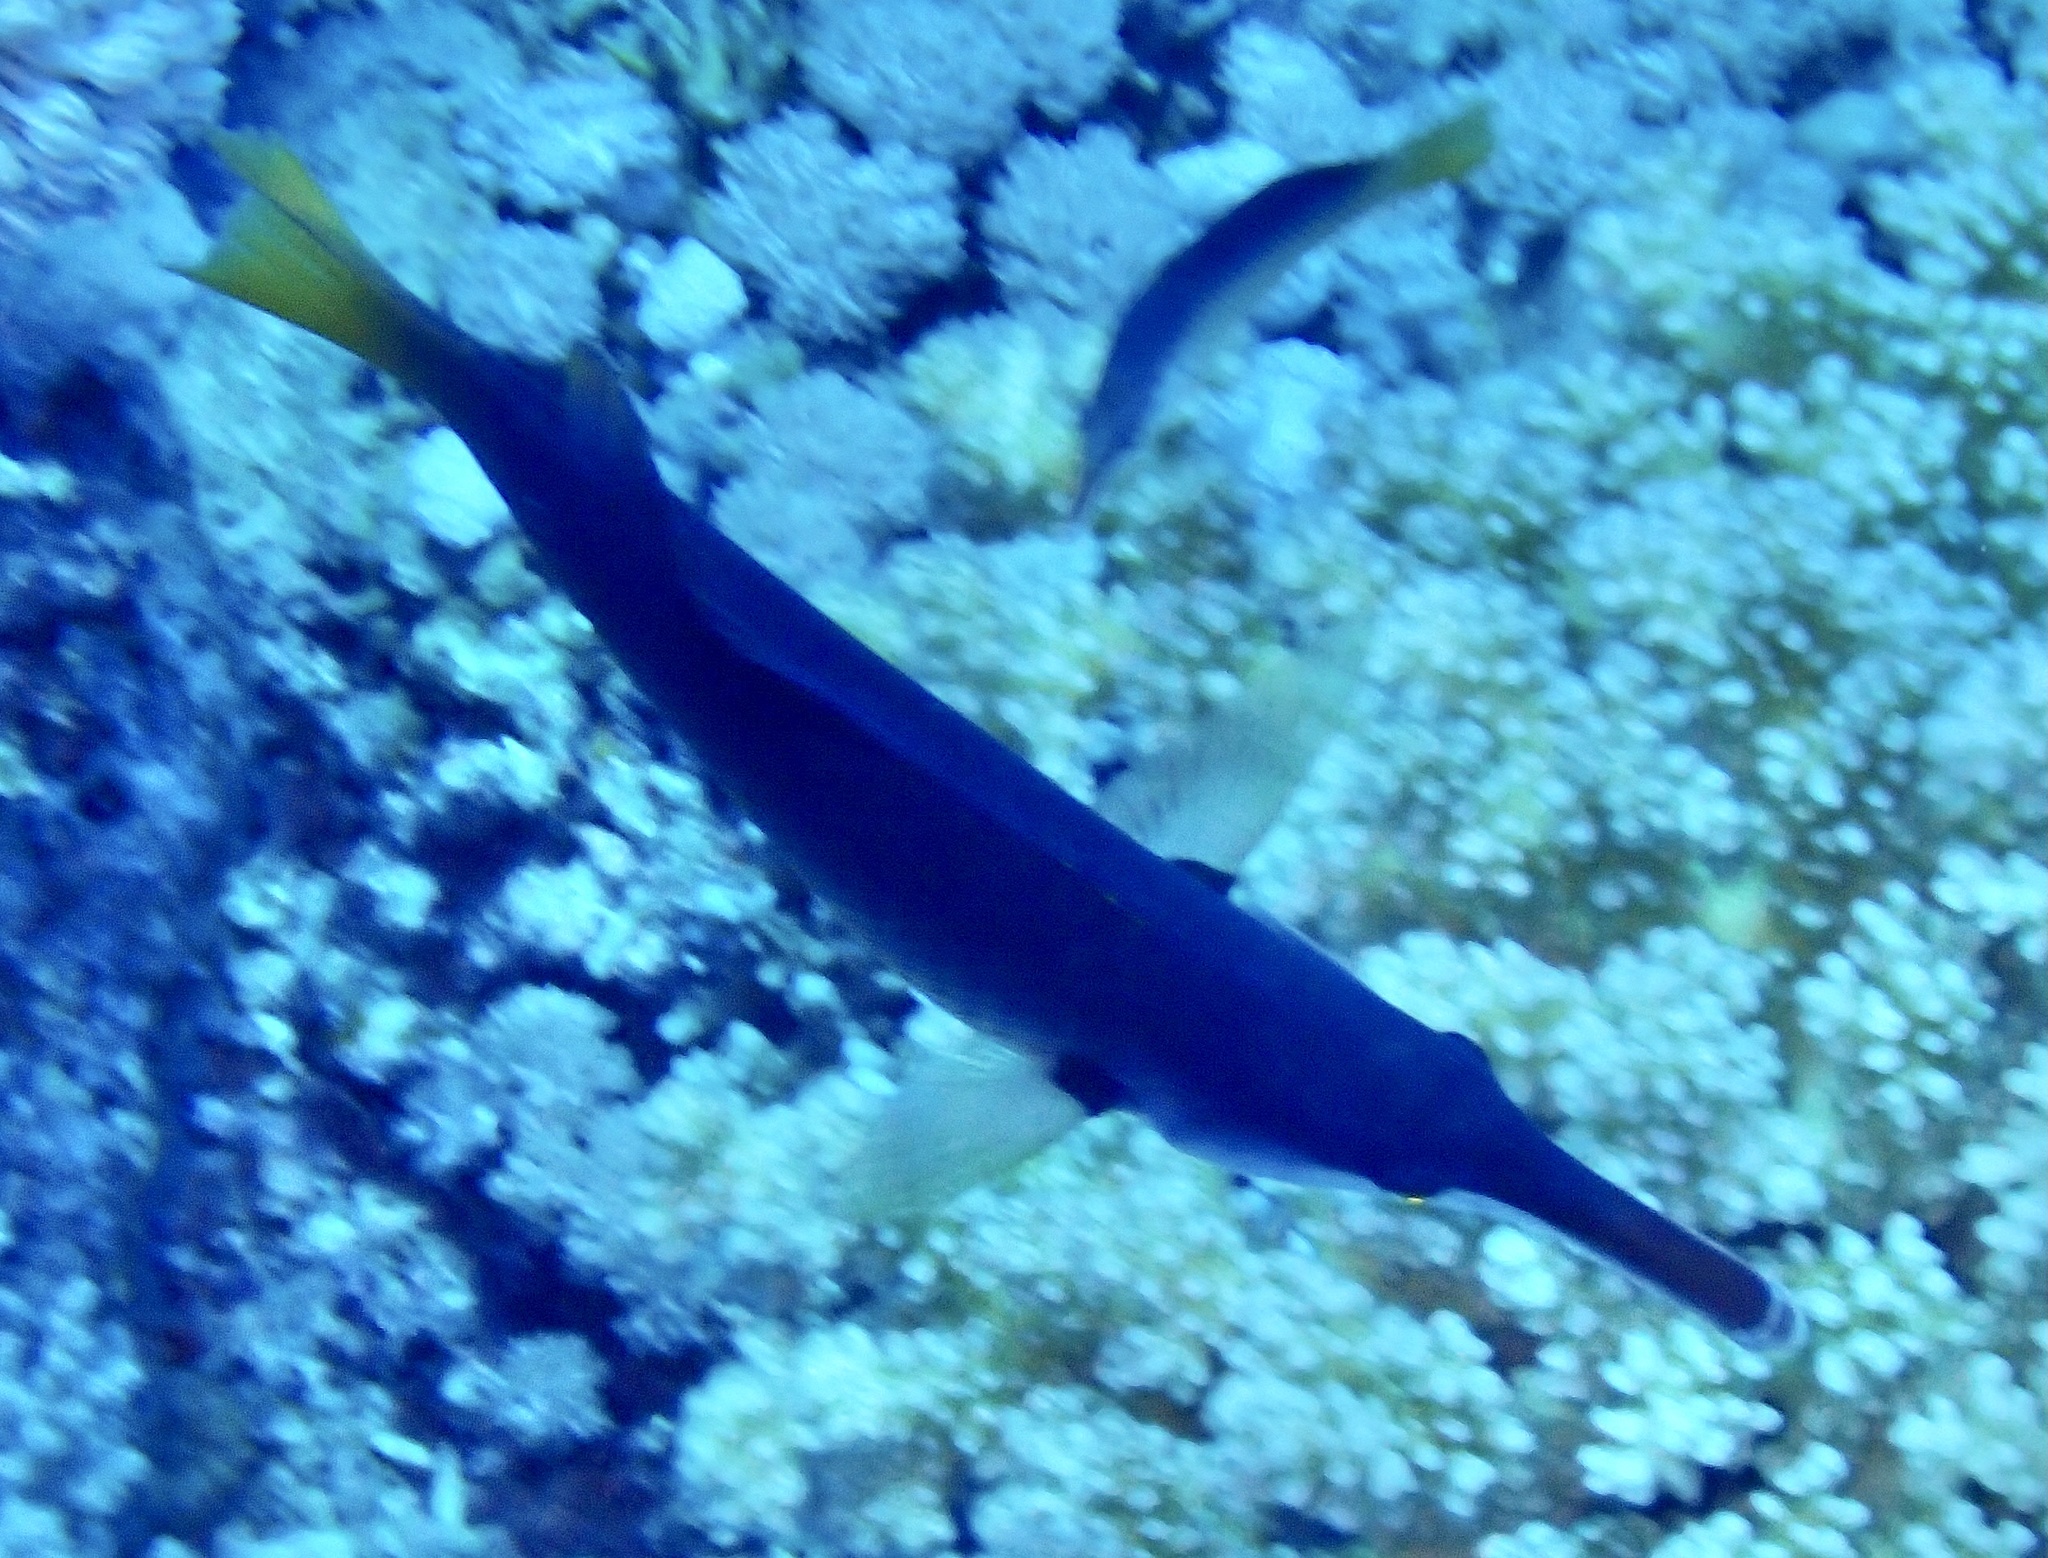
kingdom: Animalia
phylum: Chordata
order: Perciformes
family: Labridae
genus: Gomphosus
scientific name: Gomphosus klunzingeri
